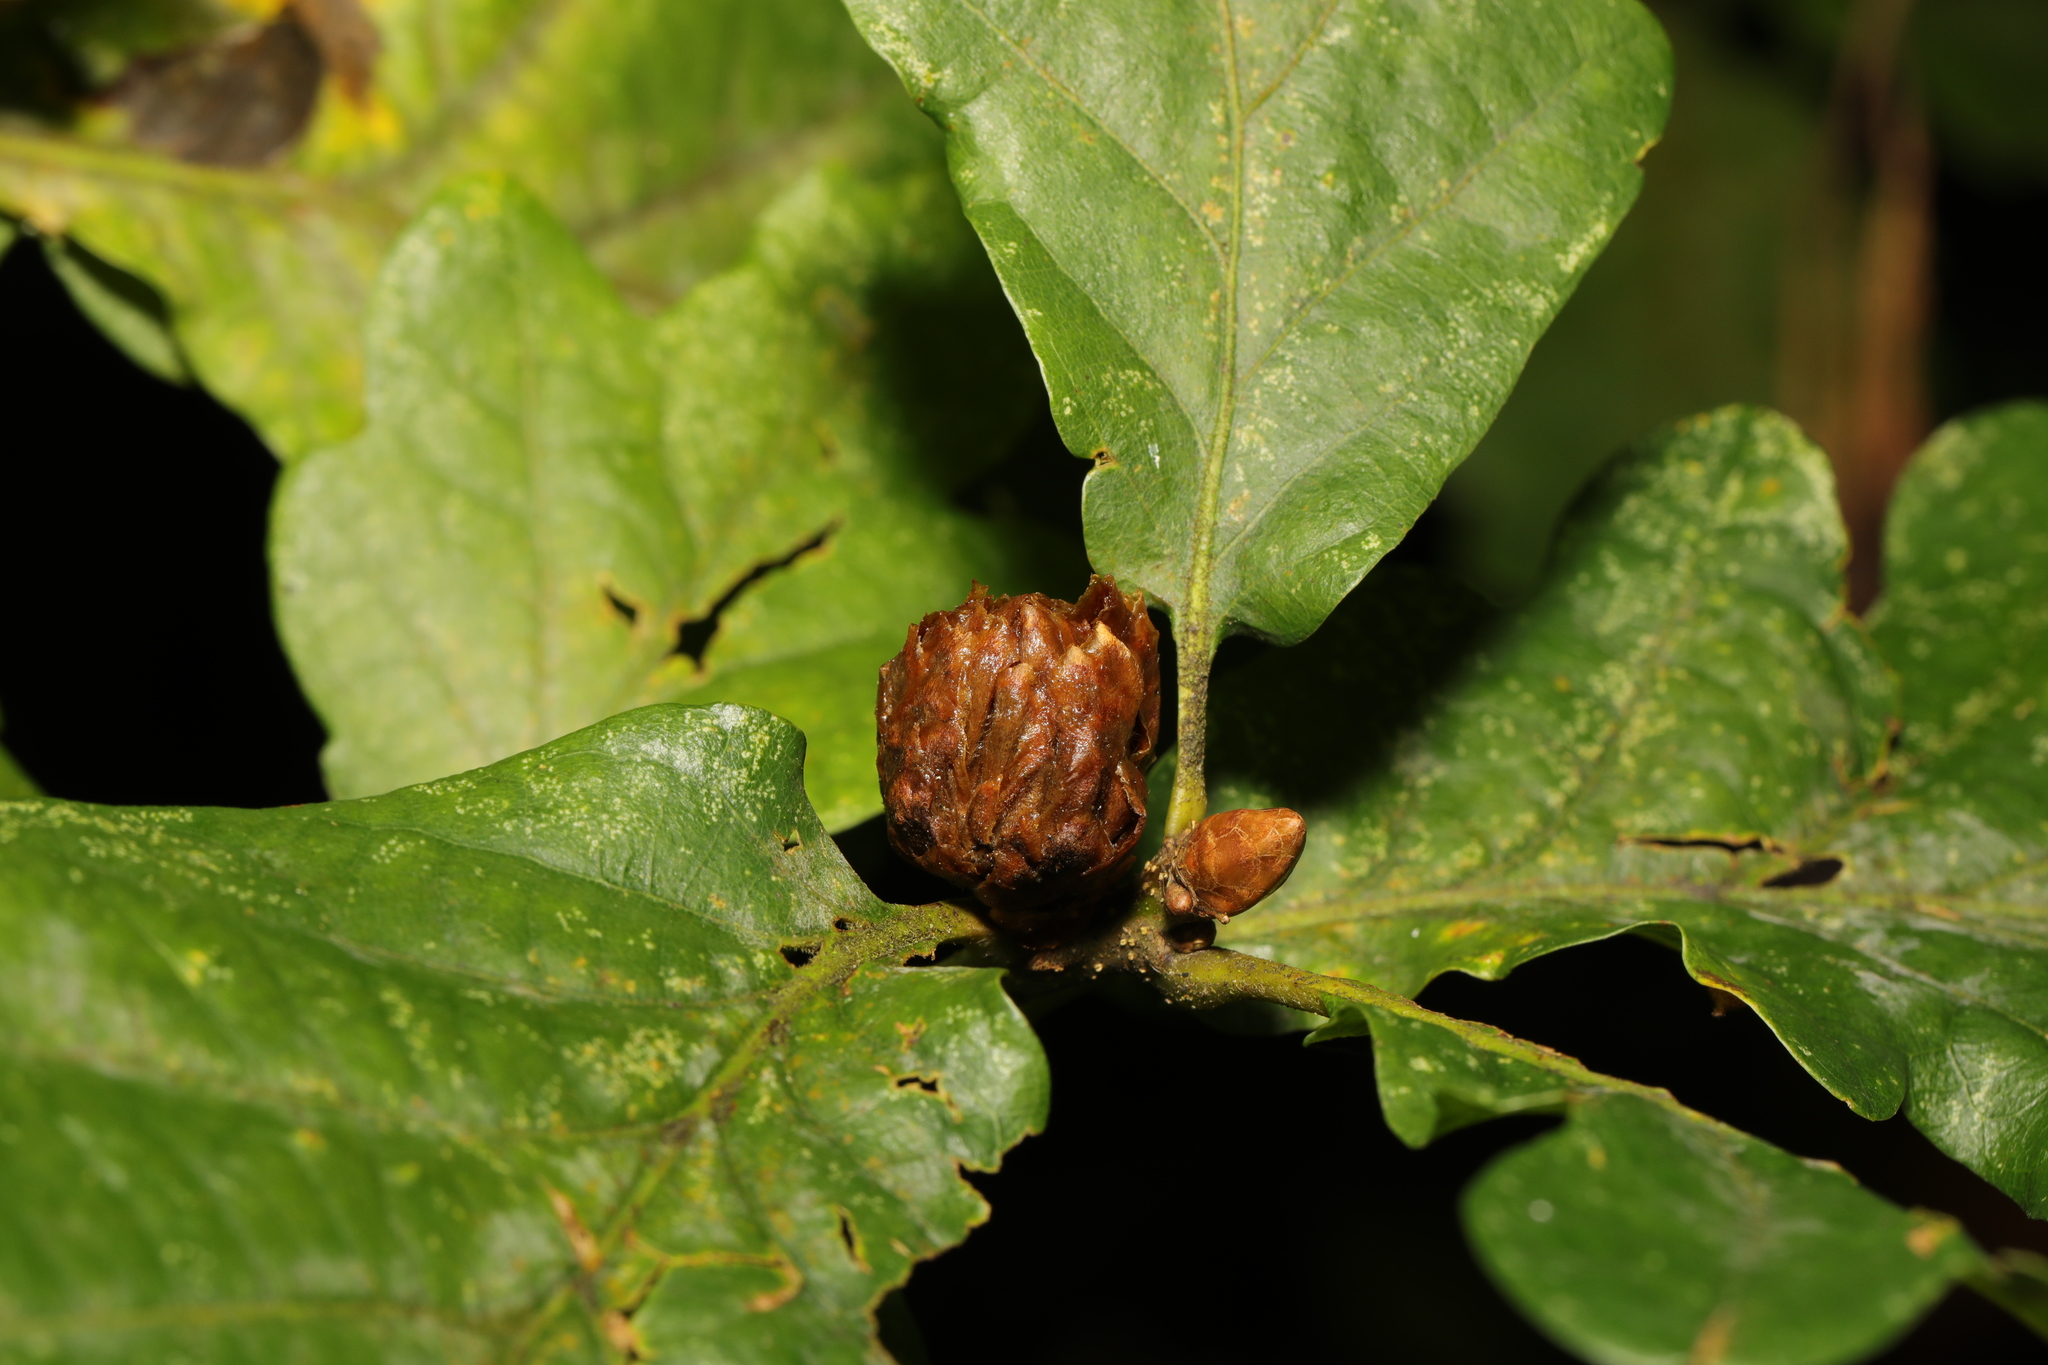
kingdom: Animalia
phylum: Arthropoda
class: Insecta
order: Hymenoptera
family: Cynipidae
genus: Andricus
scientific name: Andricus foecundatrix
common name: Artichoke gall
